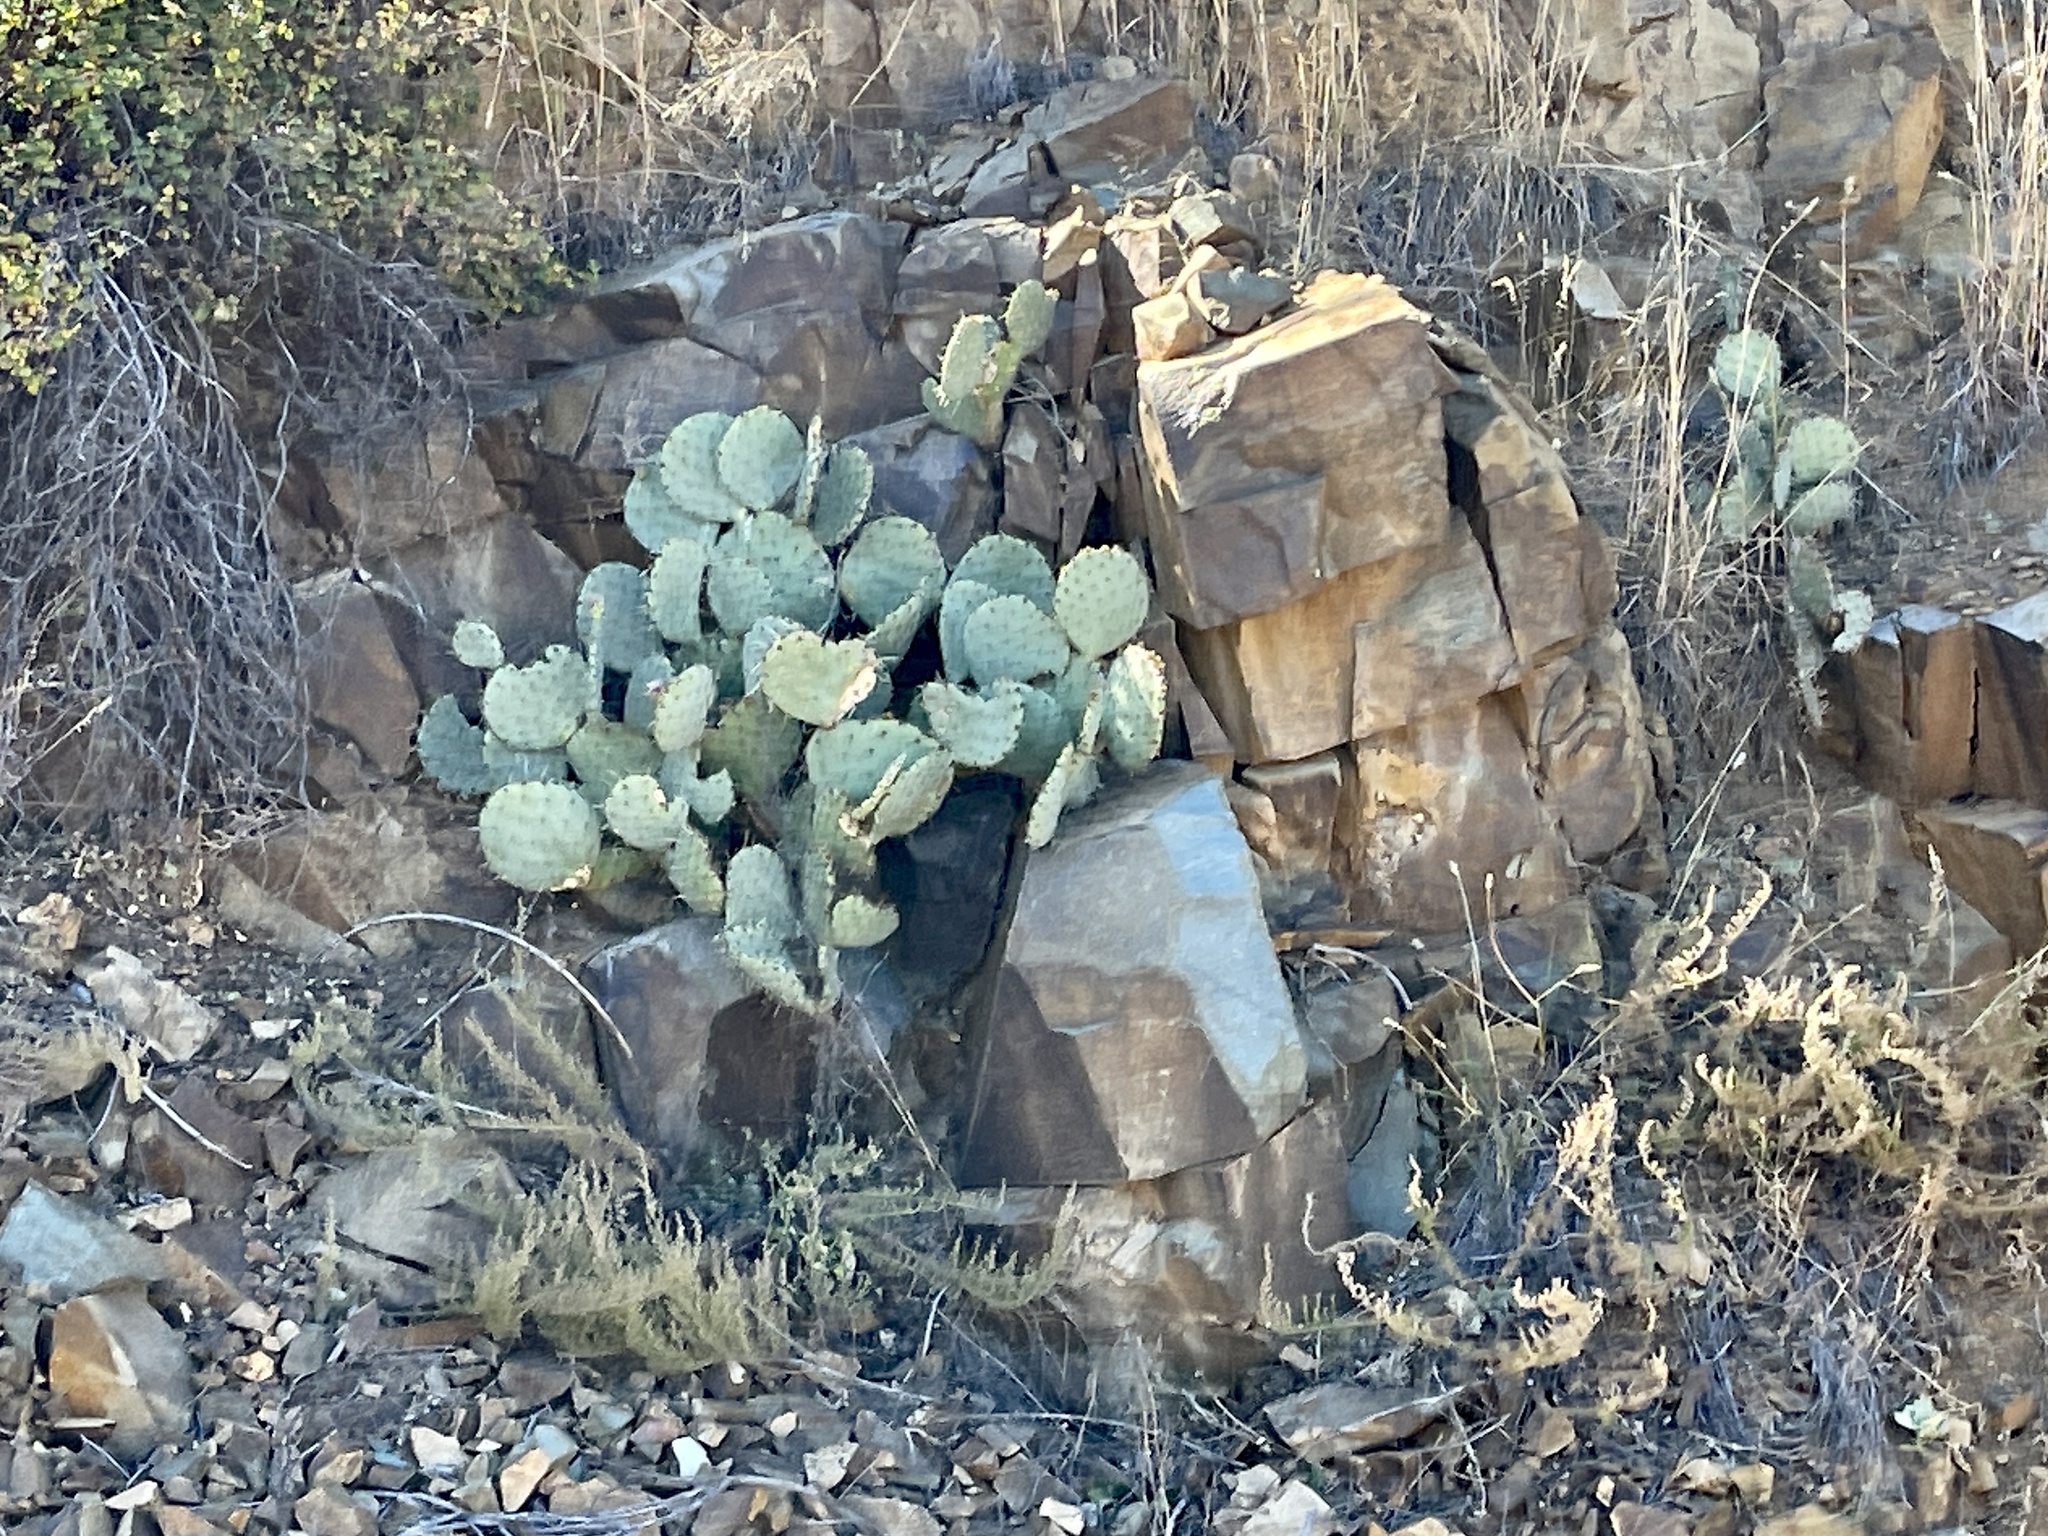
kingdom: Plantae
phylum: Tracheophyta
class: Magnoliopsida
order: Caryophyllales
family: Cactaceae
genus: Opuntia
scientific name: Opuntia engelmannii
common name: Cactus-apple
